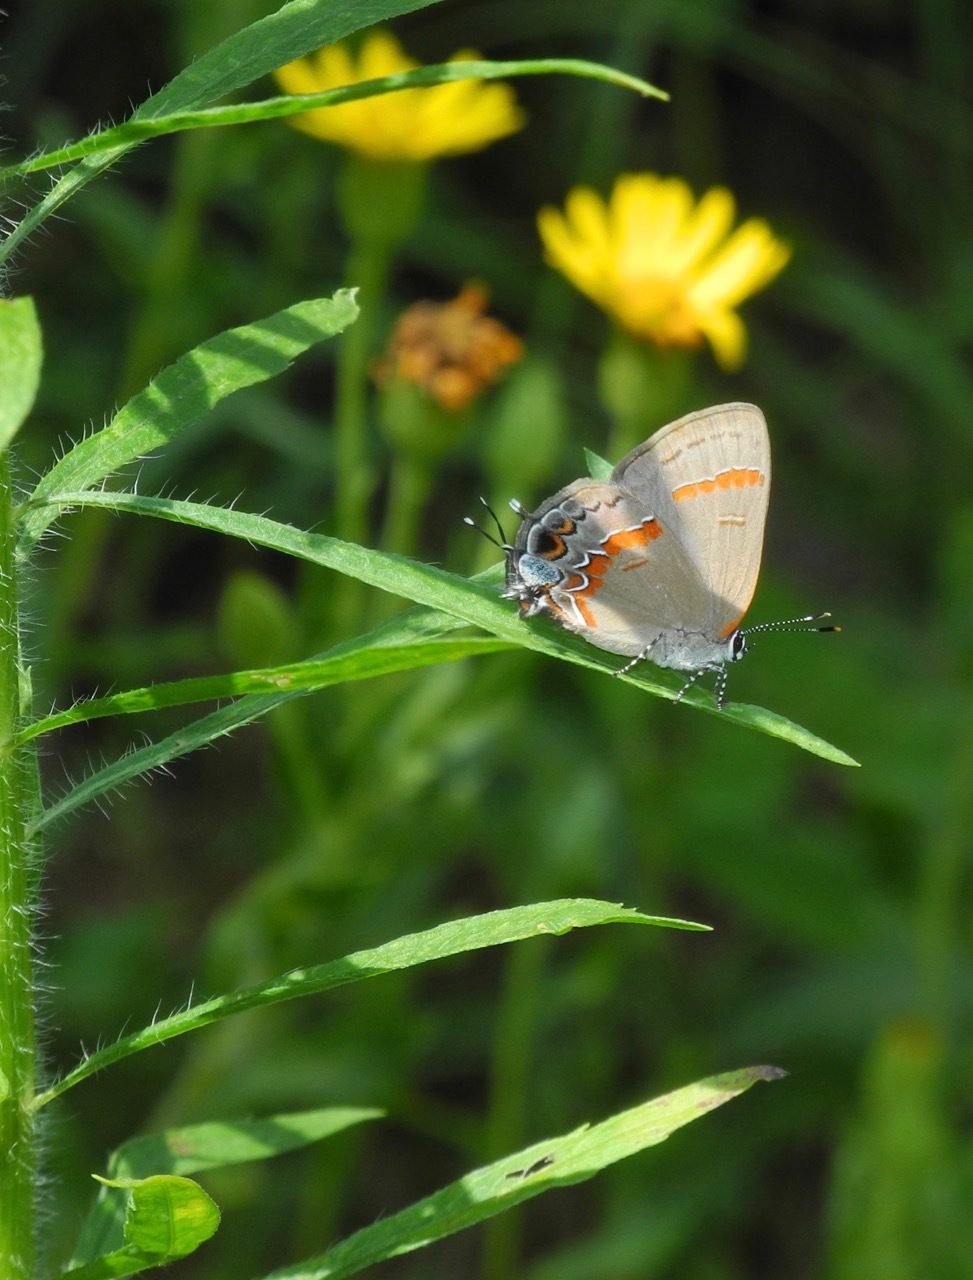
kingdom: Animalia
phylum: Arthropoda
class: Insecta
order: Lepidoptera
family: Lycaenidae
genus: Calycopis
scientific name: Calycopis cecrops
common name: Red-banded hairstreak
